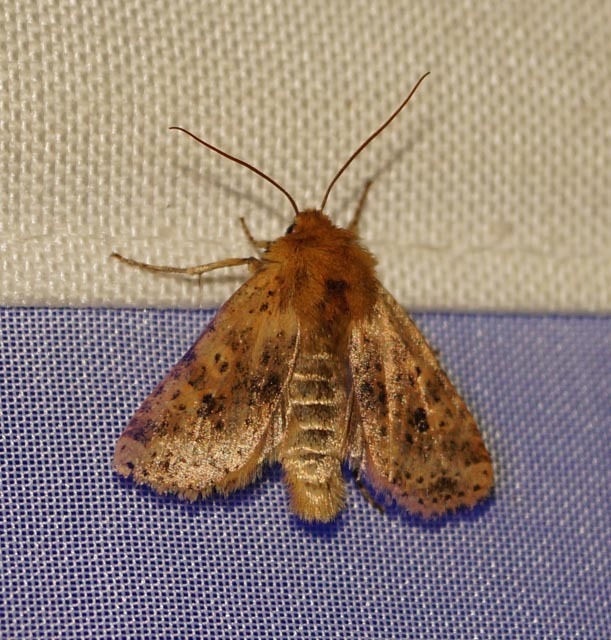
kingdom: Animalia
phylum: Arthropoda
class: Insecta
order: Lepidoptera
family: Noctuidae
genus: Conistra
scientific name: Conistra rubiginea
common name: Dotted chestnut
